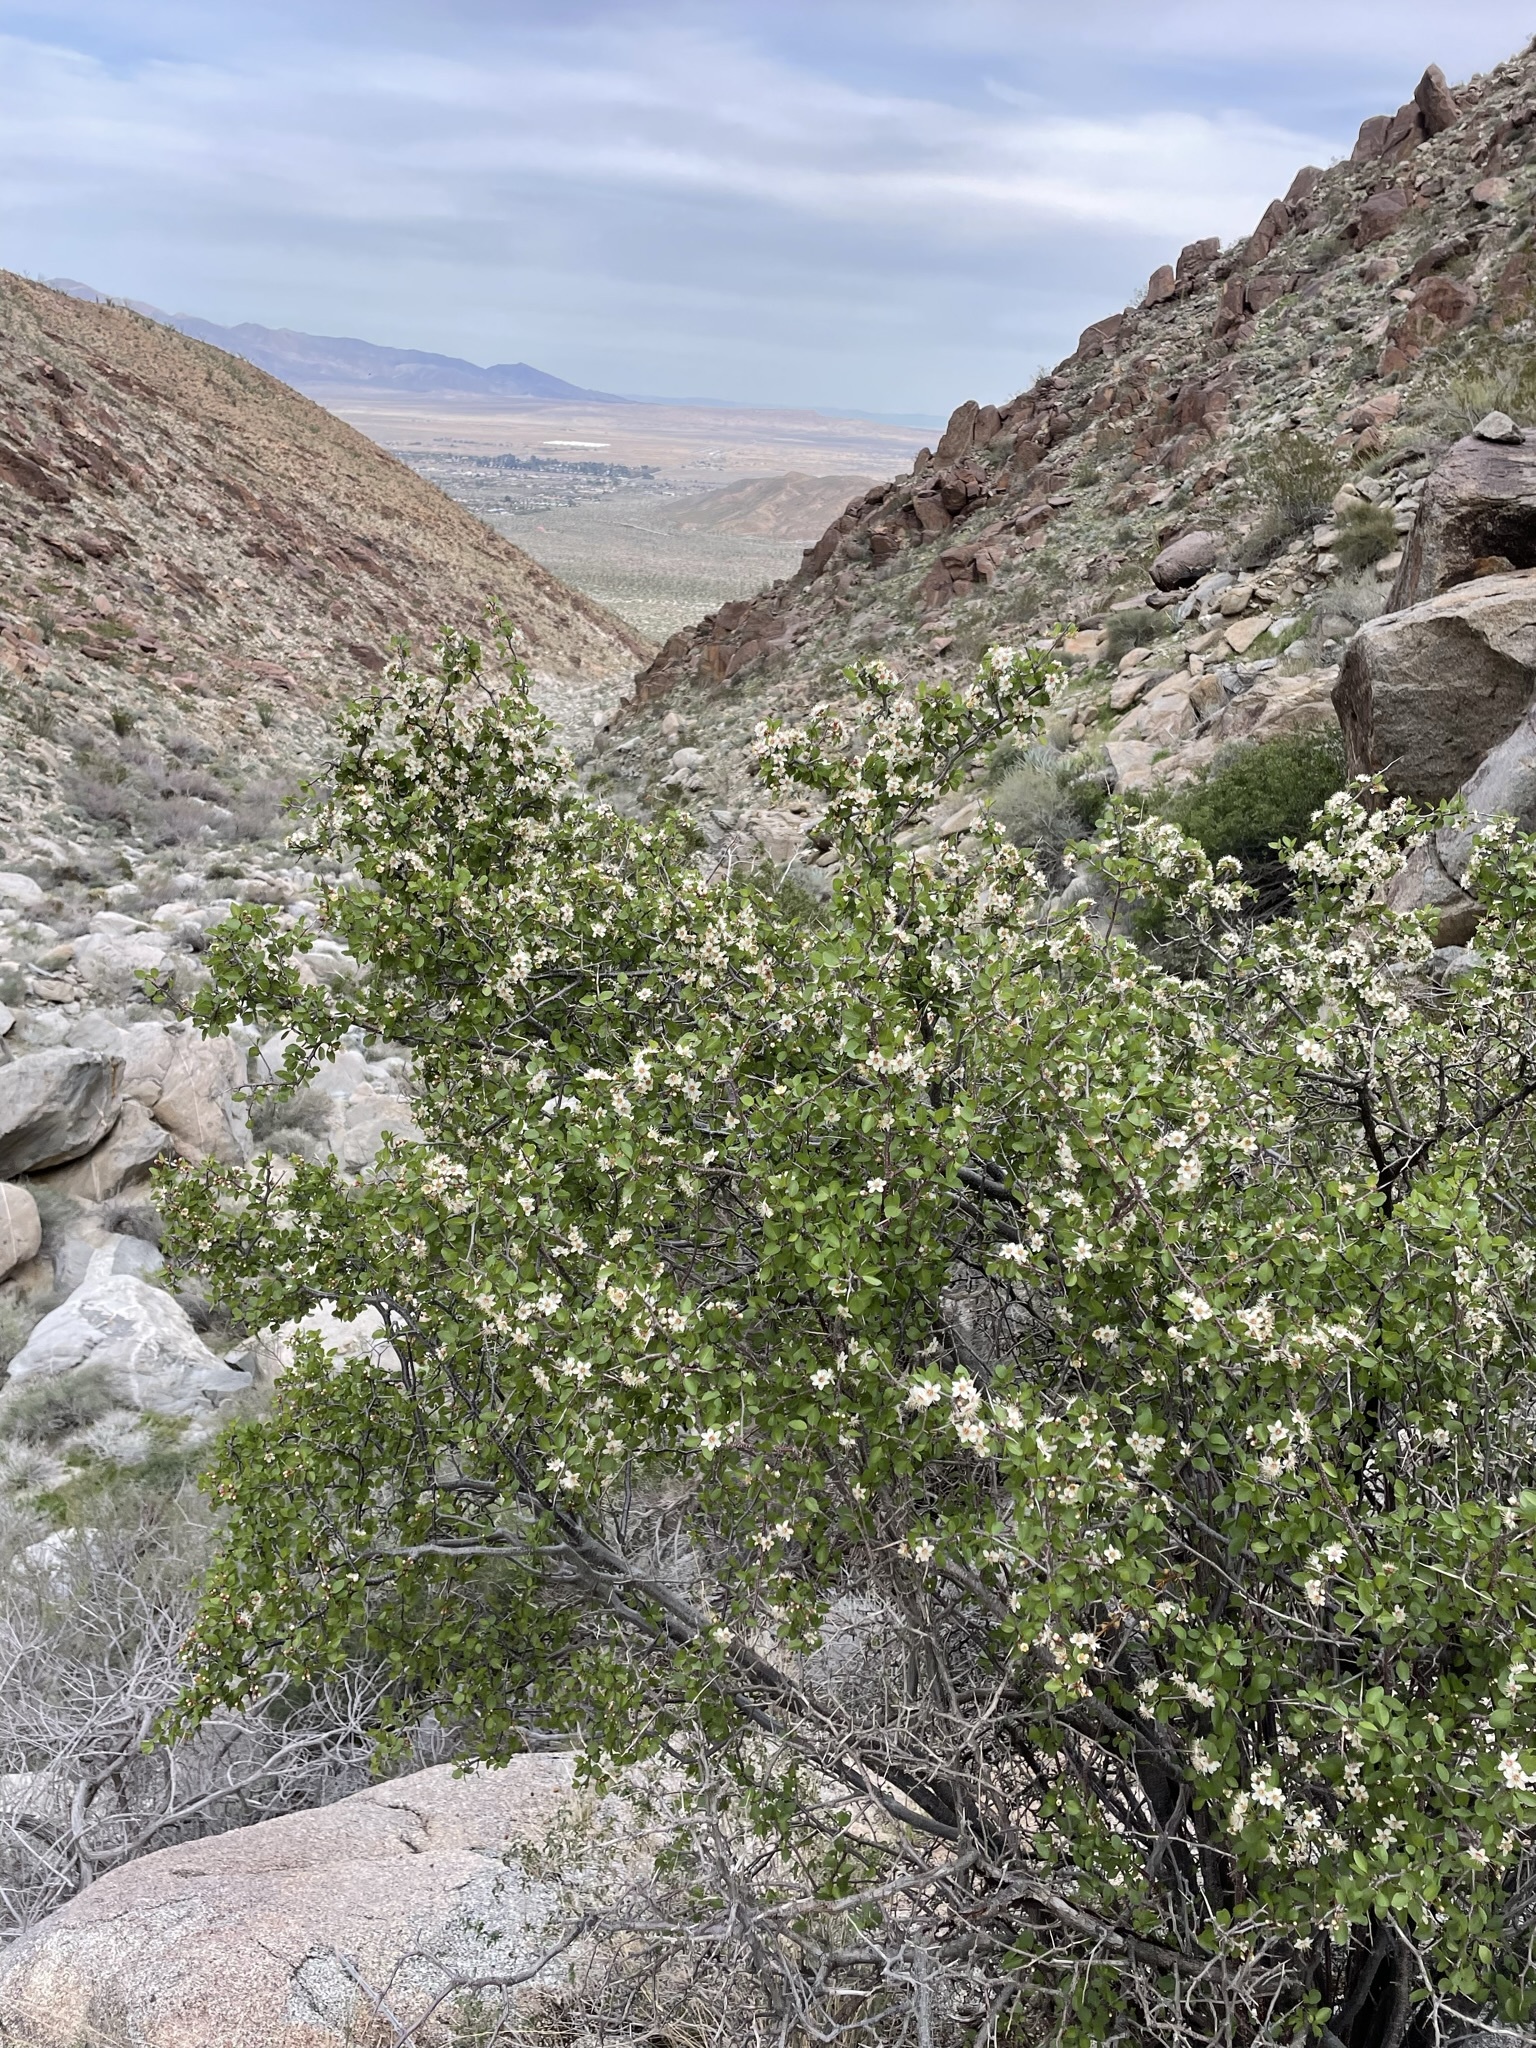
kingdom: Plantae
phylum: Tracheophyta
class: Magnoliopsida
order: Rosales
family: Rosaceae
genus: Prunus
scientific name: Prunus fremontii
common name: Desert apricot
